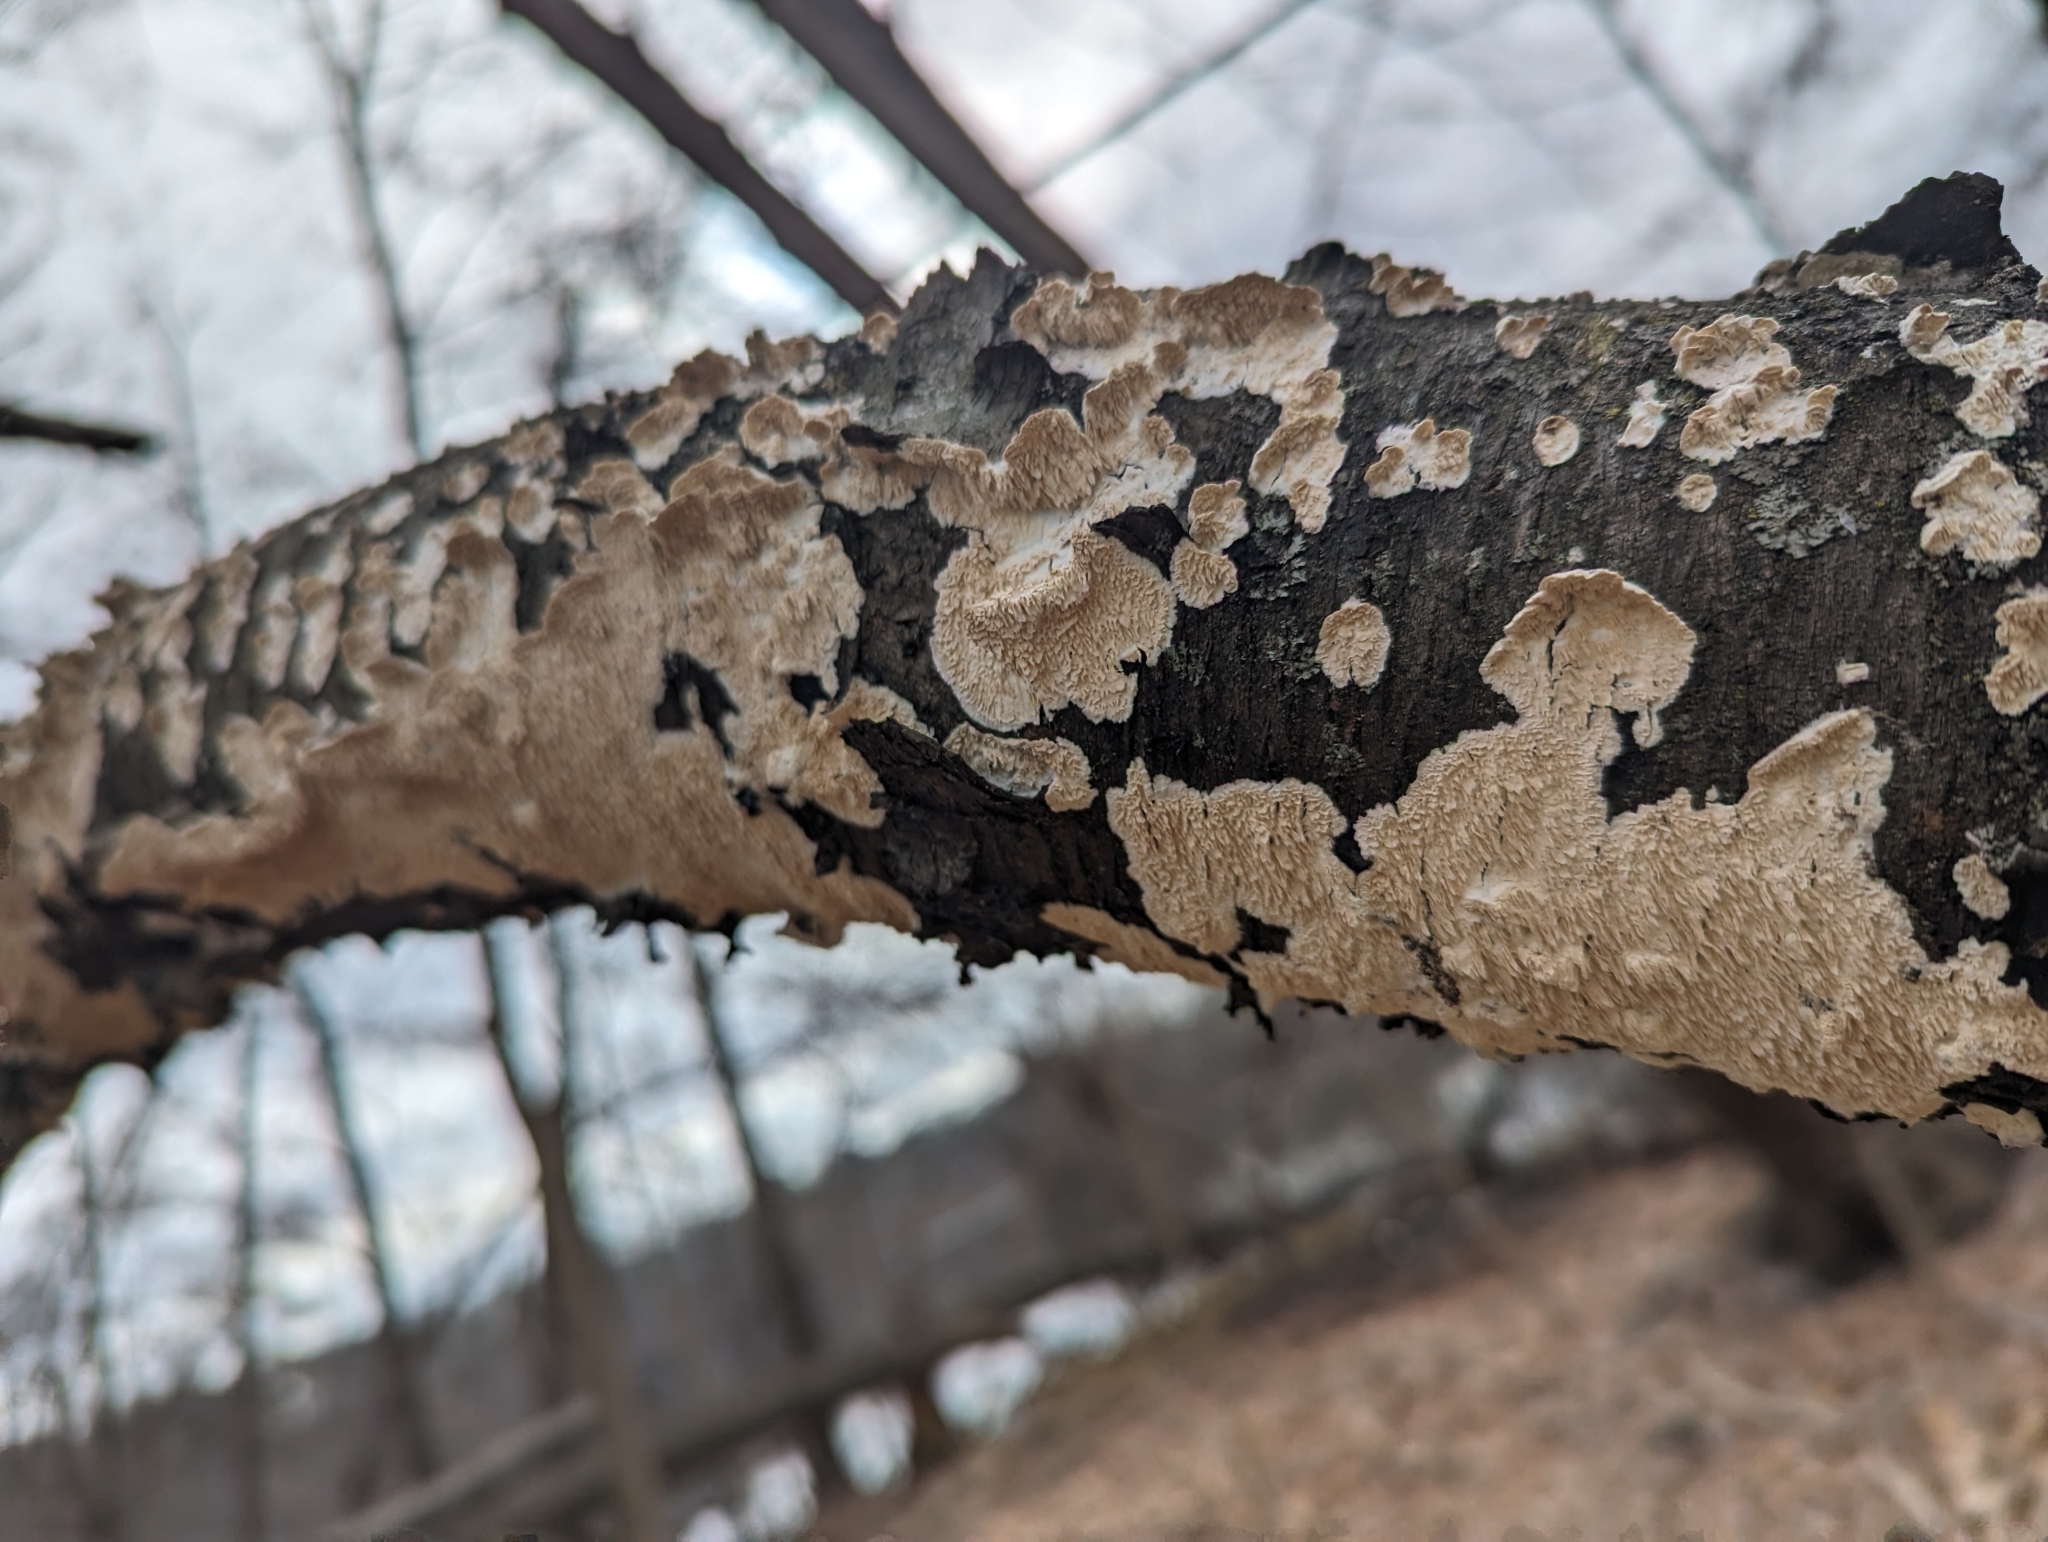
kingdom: Fungi
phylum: Basidiomycota
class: Agaricomycetes
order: Polyporales
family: Irpicaceae
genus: Irpex
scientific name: Irpex lacteus
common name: Milk-white toothed polypore
